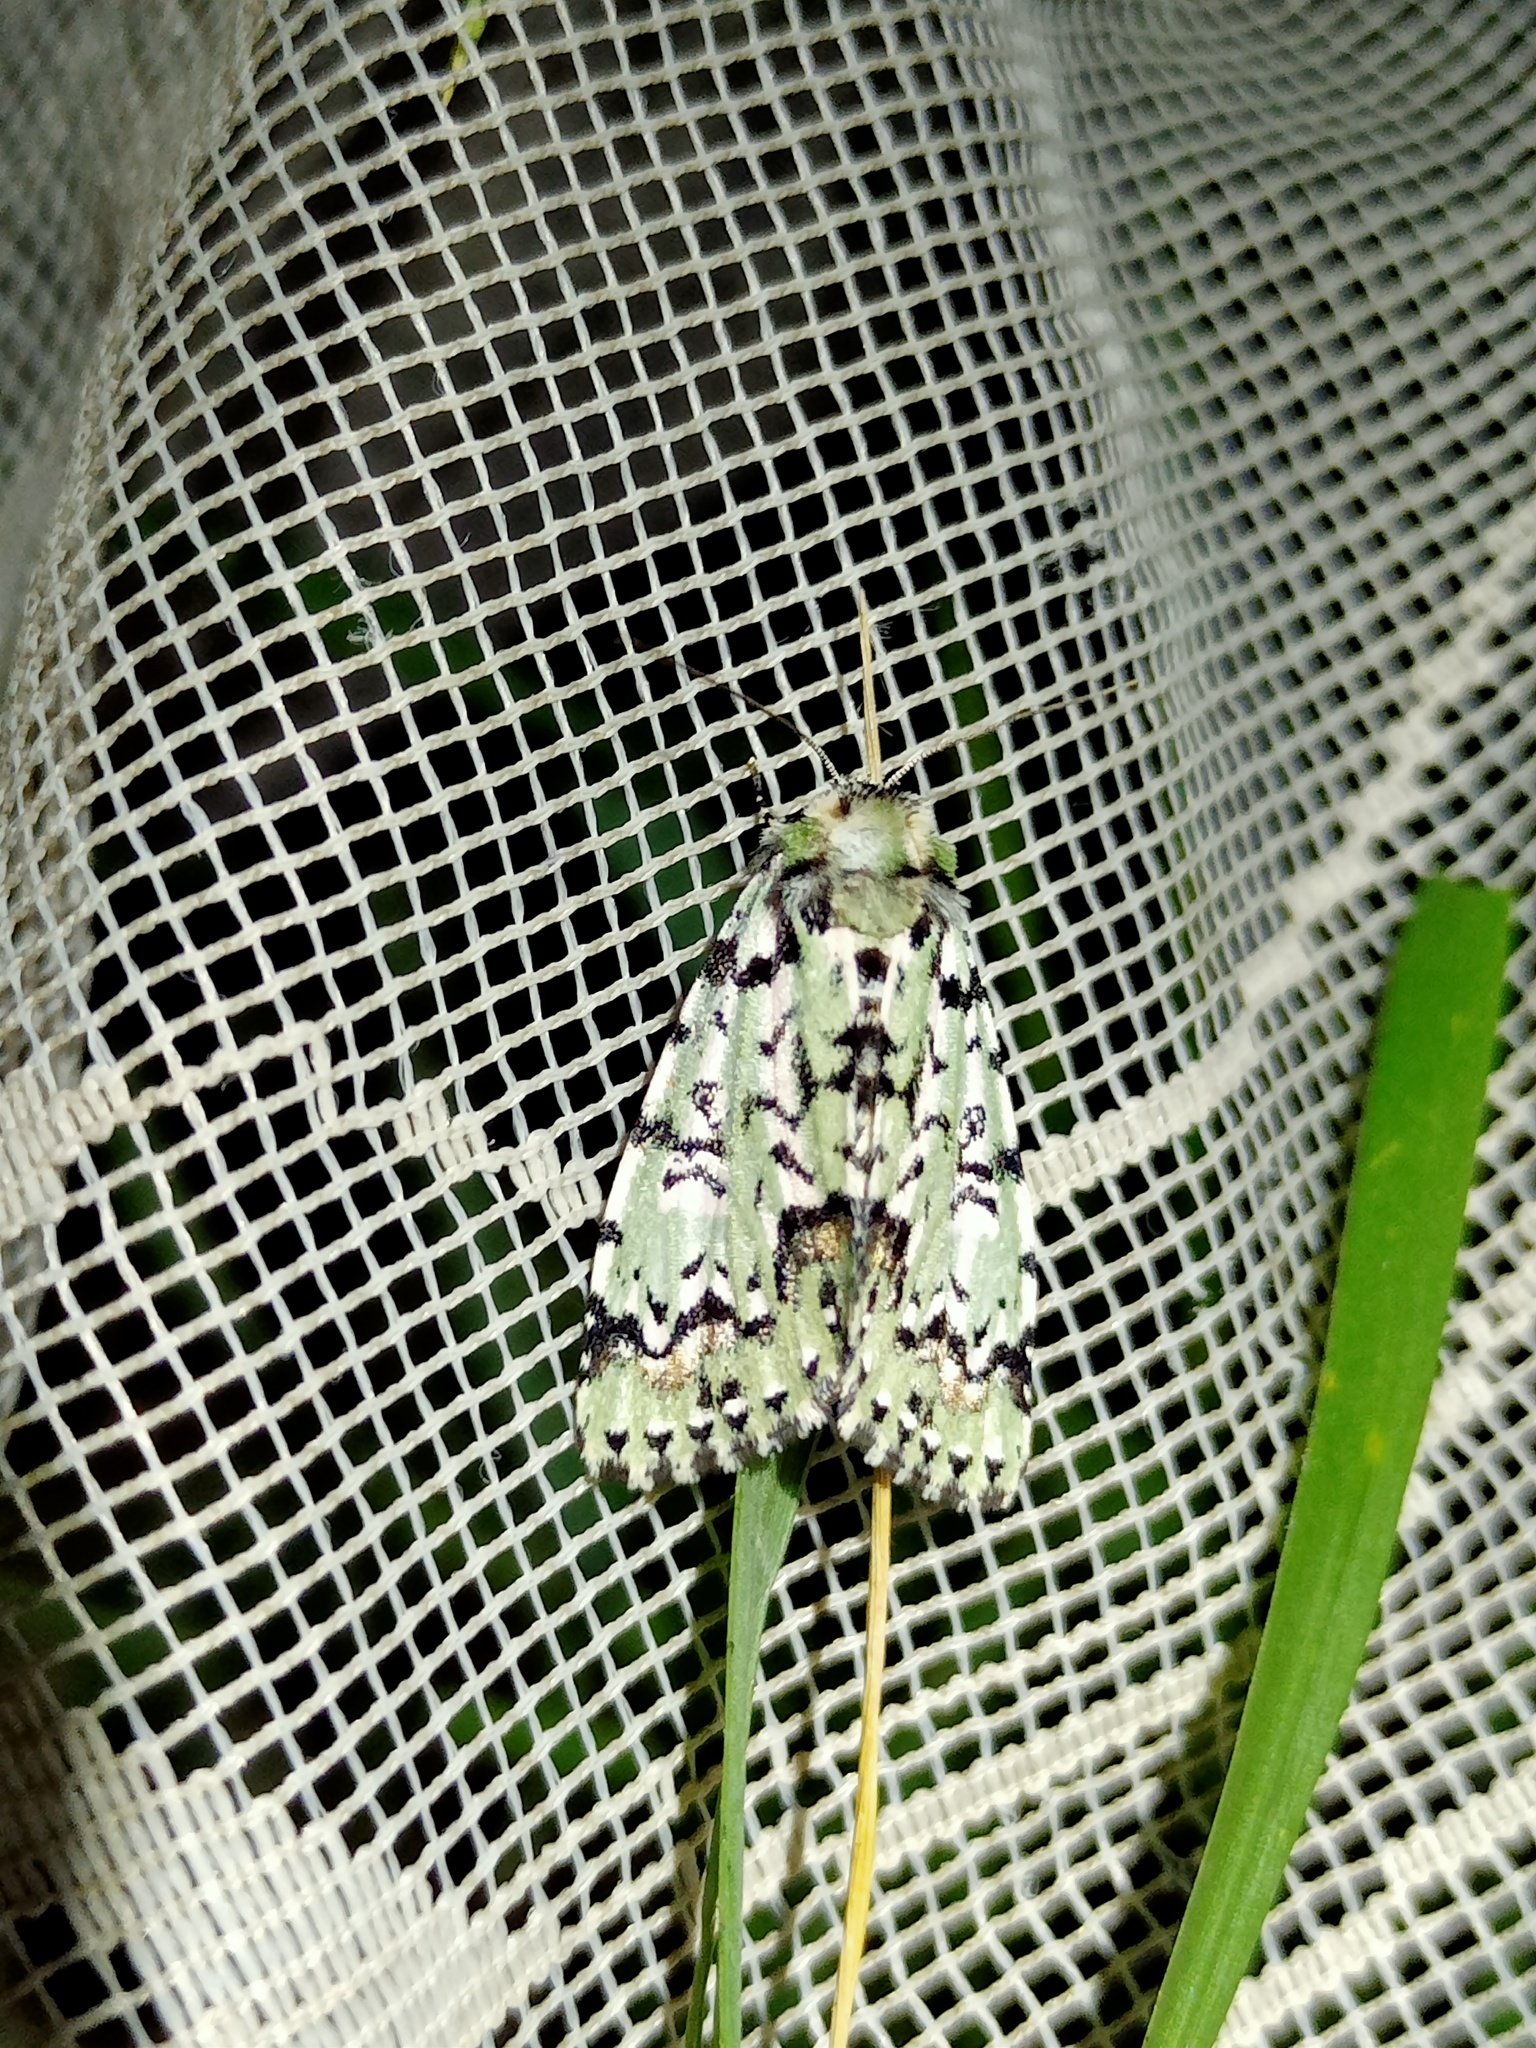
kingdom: Animalia
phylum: Arthropoda
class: Insecta
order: Lepidoptera
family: Noctuidae
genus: Moma
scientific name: Moma alpium
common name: Scarce merveille du jour
